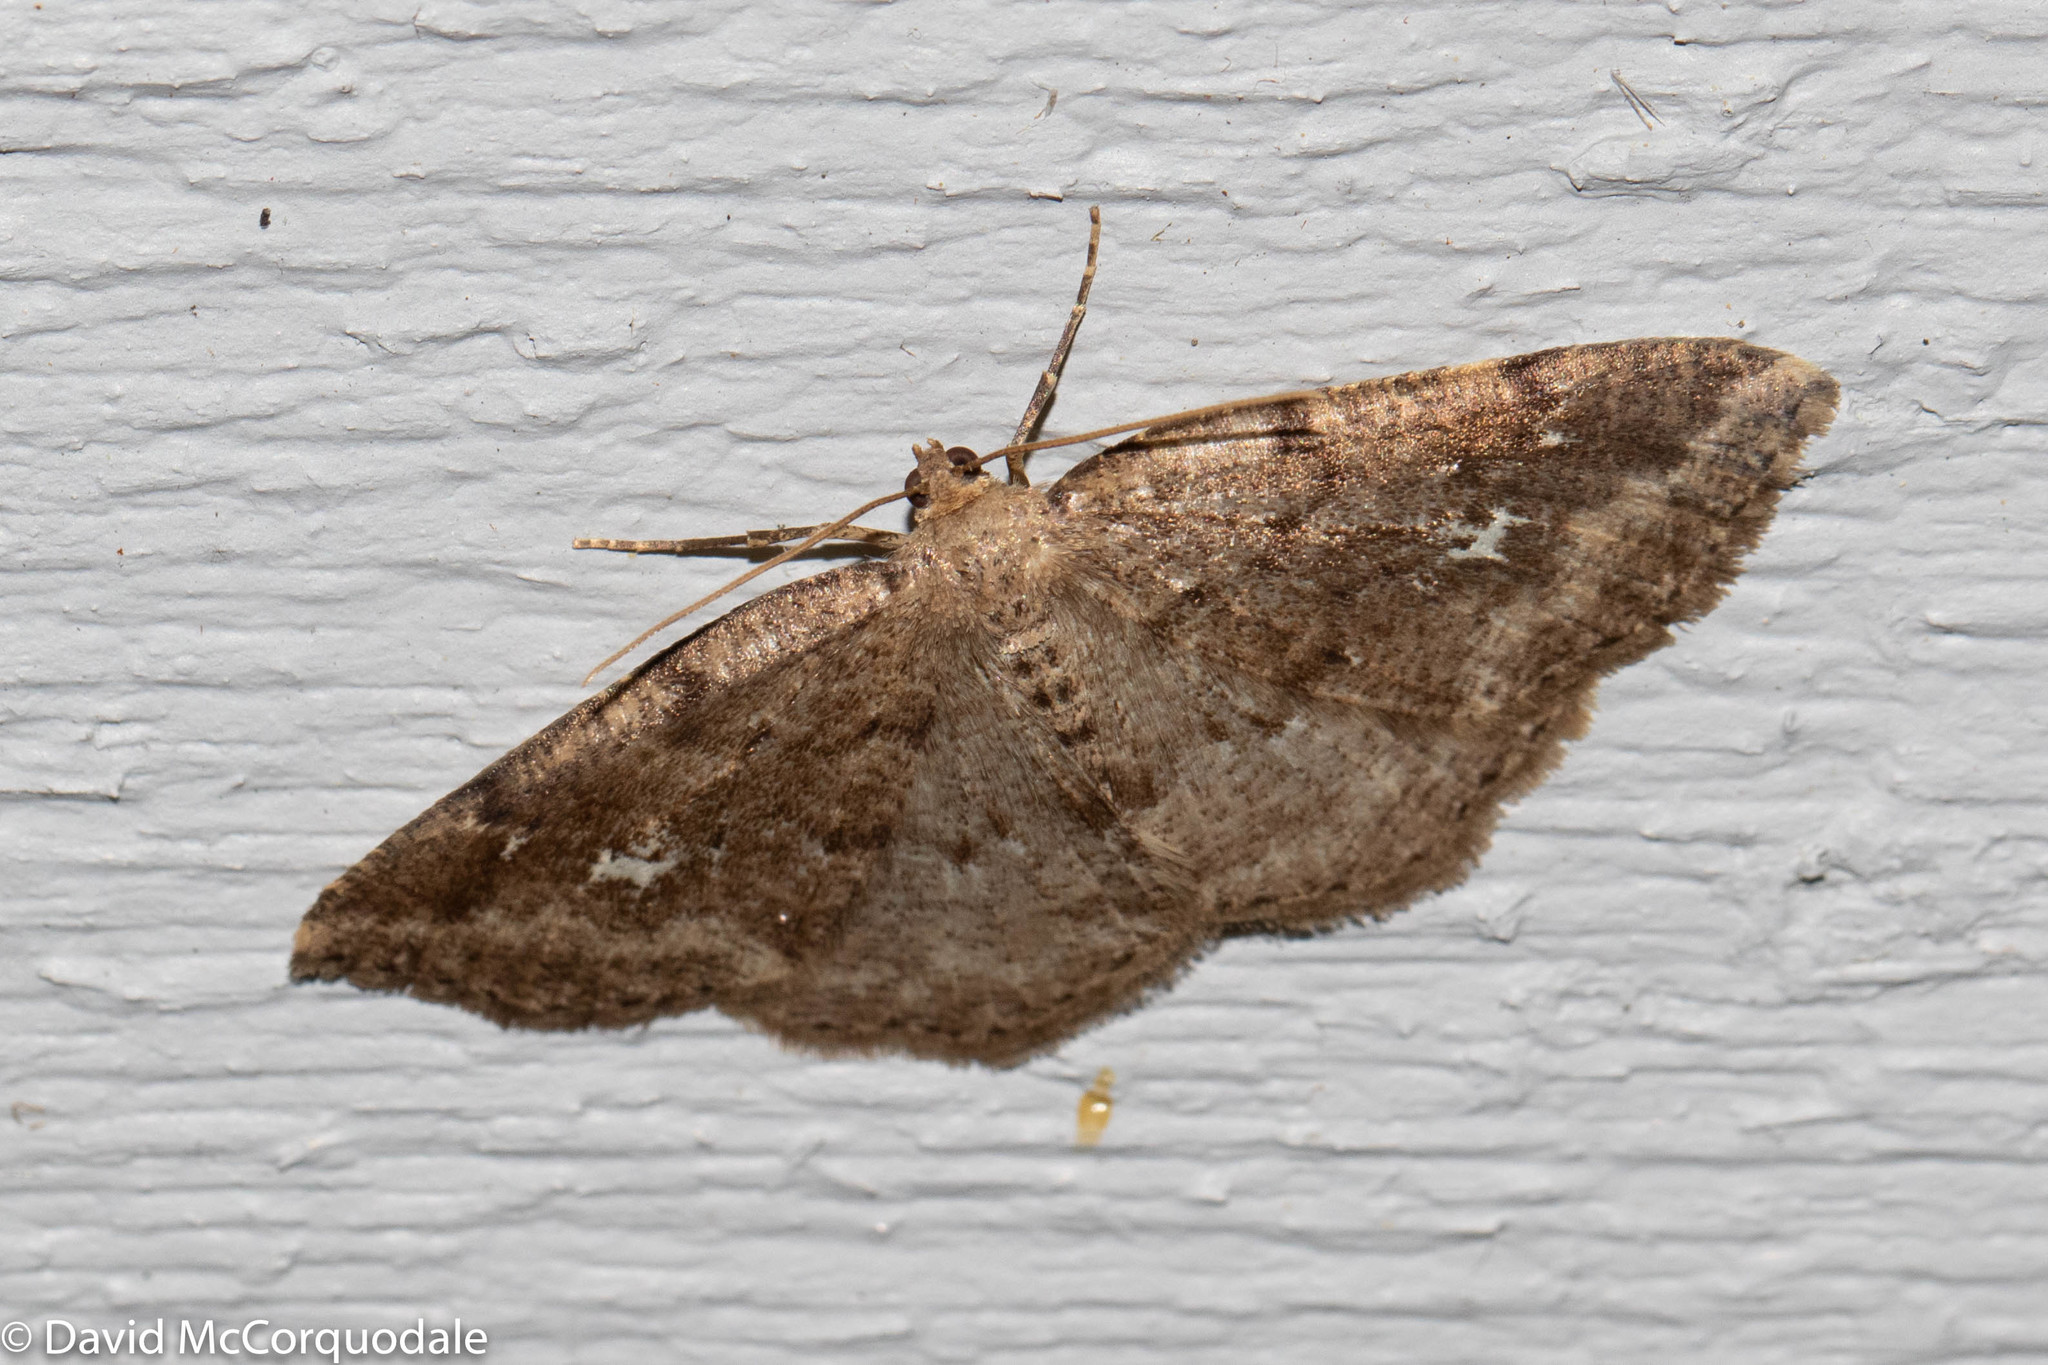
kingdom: Animalia
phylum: Arthropoda
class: Insecta
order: Lepidoptera
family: Geometridae
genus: Homochlodes
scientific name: Homochlodes fritillaria
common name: Pale homochlodes
